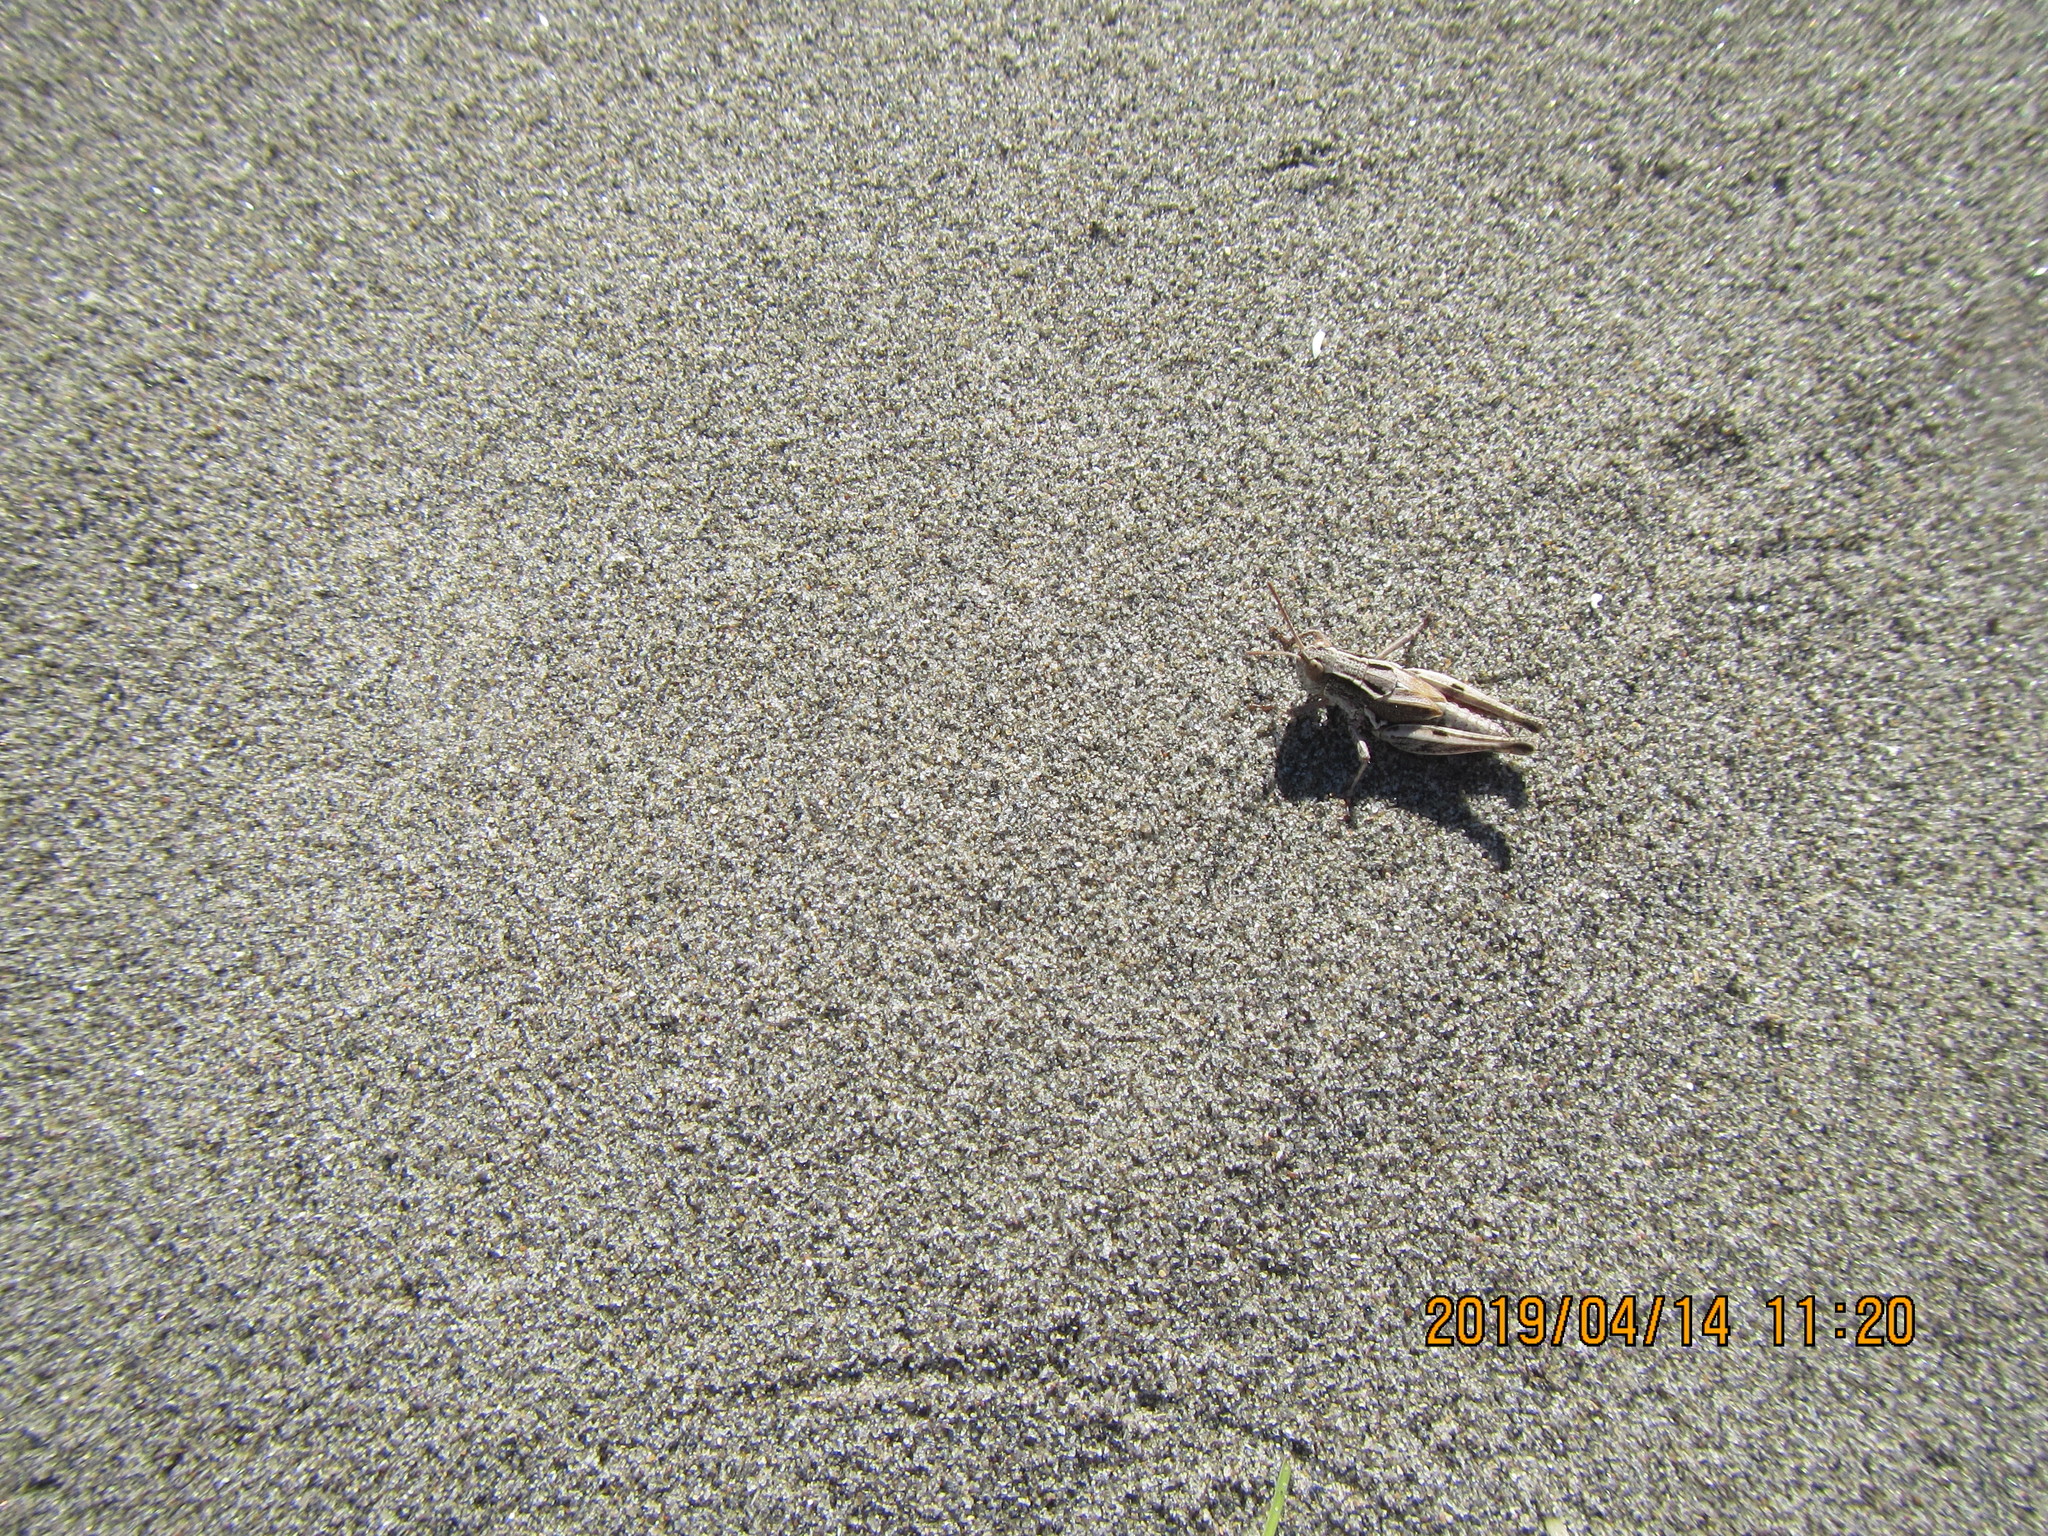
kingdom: Animalia
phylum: Arthropoda
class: Insecta
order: Orthoptera
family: Acrididae
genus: Phaulacridium
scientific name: Phaulacridium marginale
